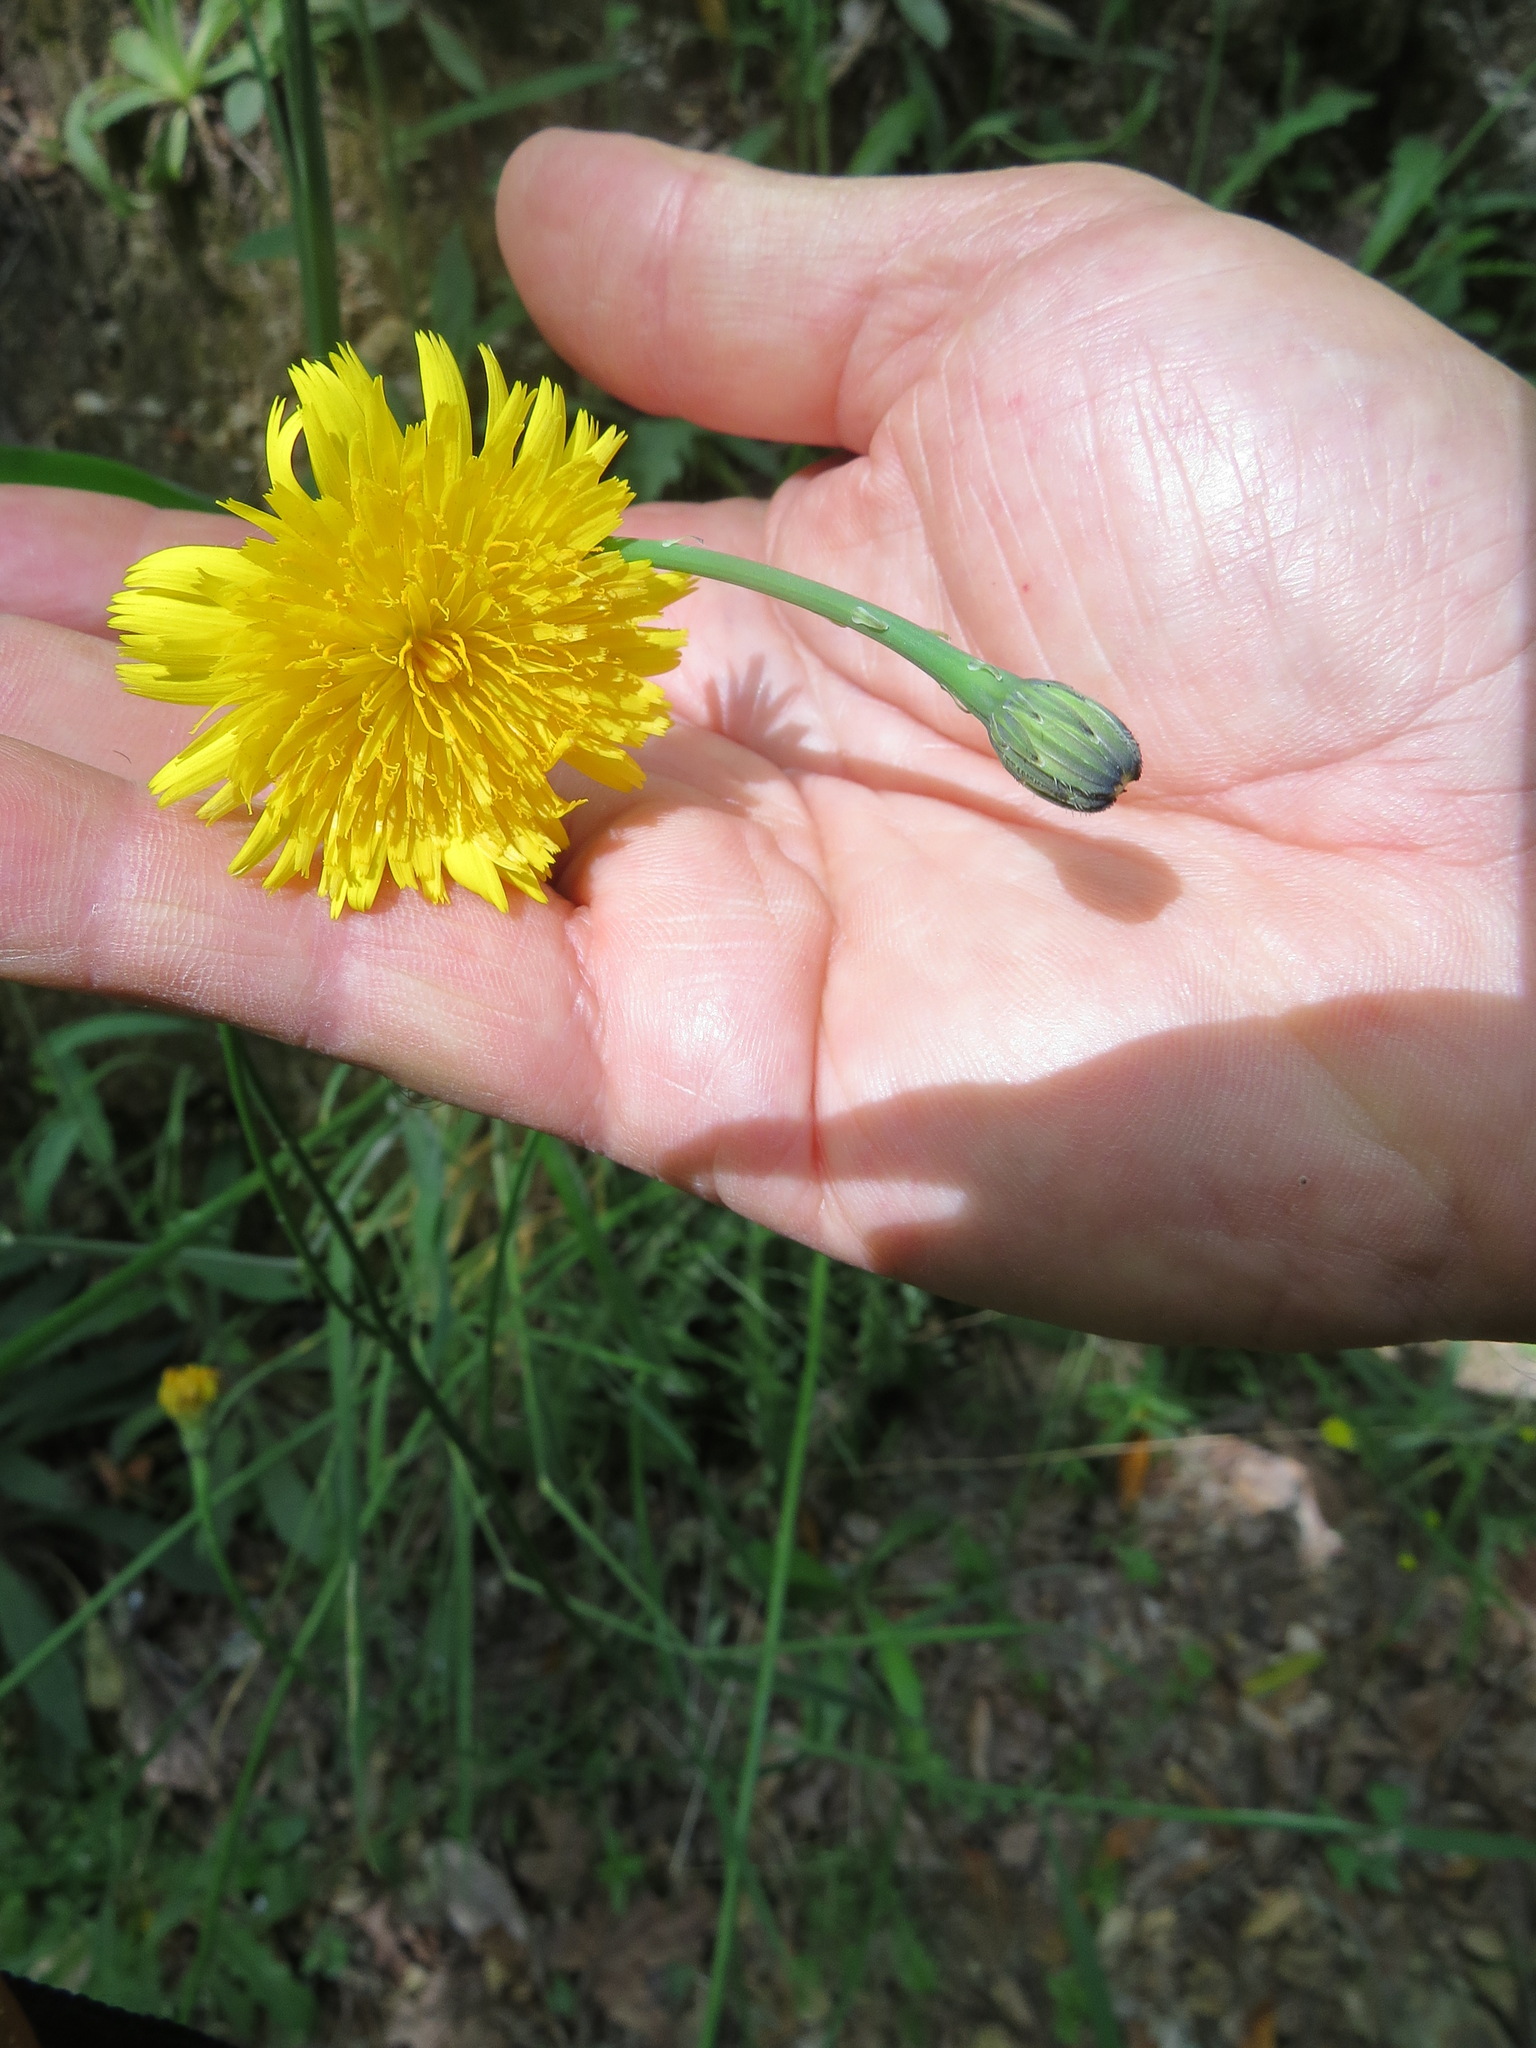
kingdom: Animalia
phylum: Arthropoda
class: Insecta
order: Hymenoptera
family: Cynipidae
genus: Phanacis
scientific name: Phanacis hypochoeridis
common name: Gall wasp
